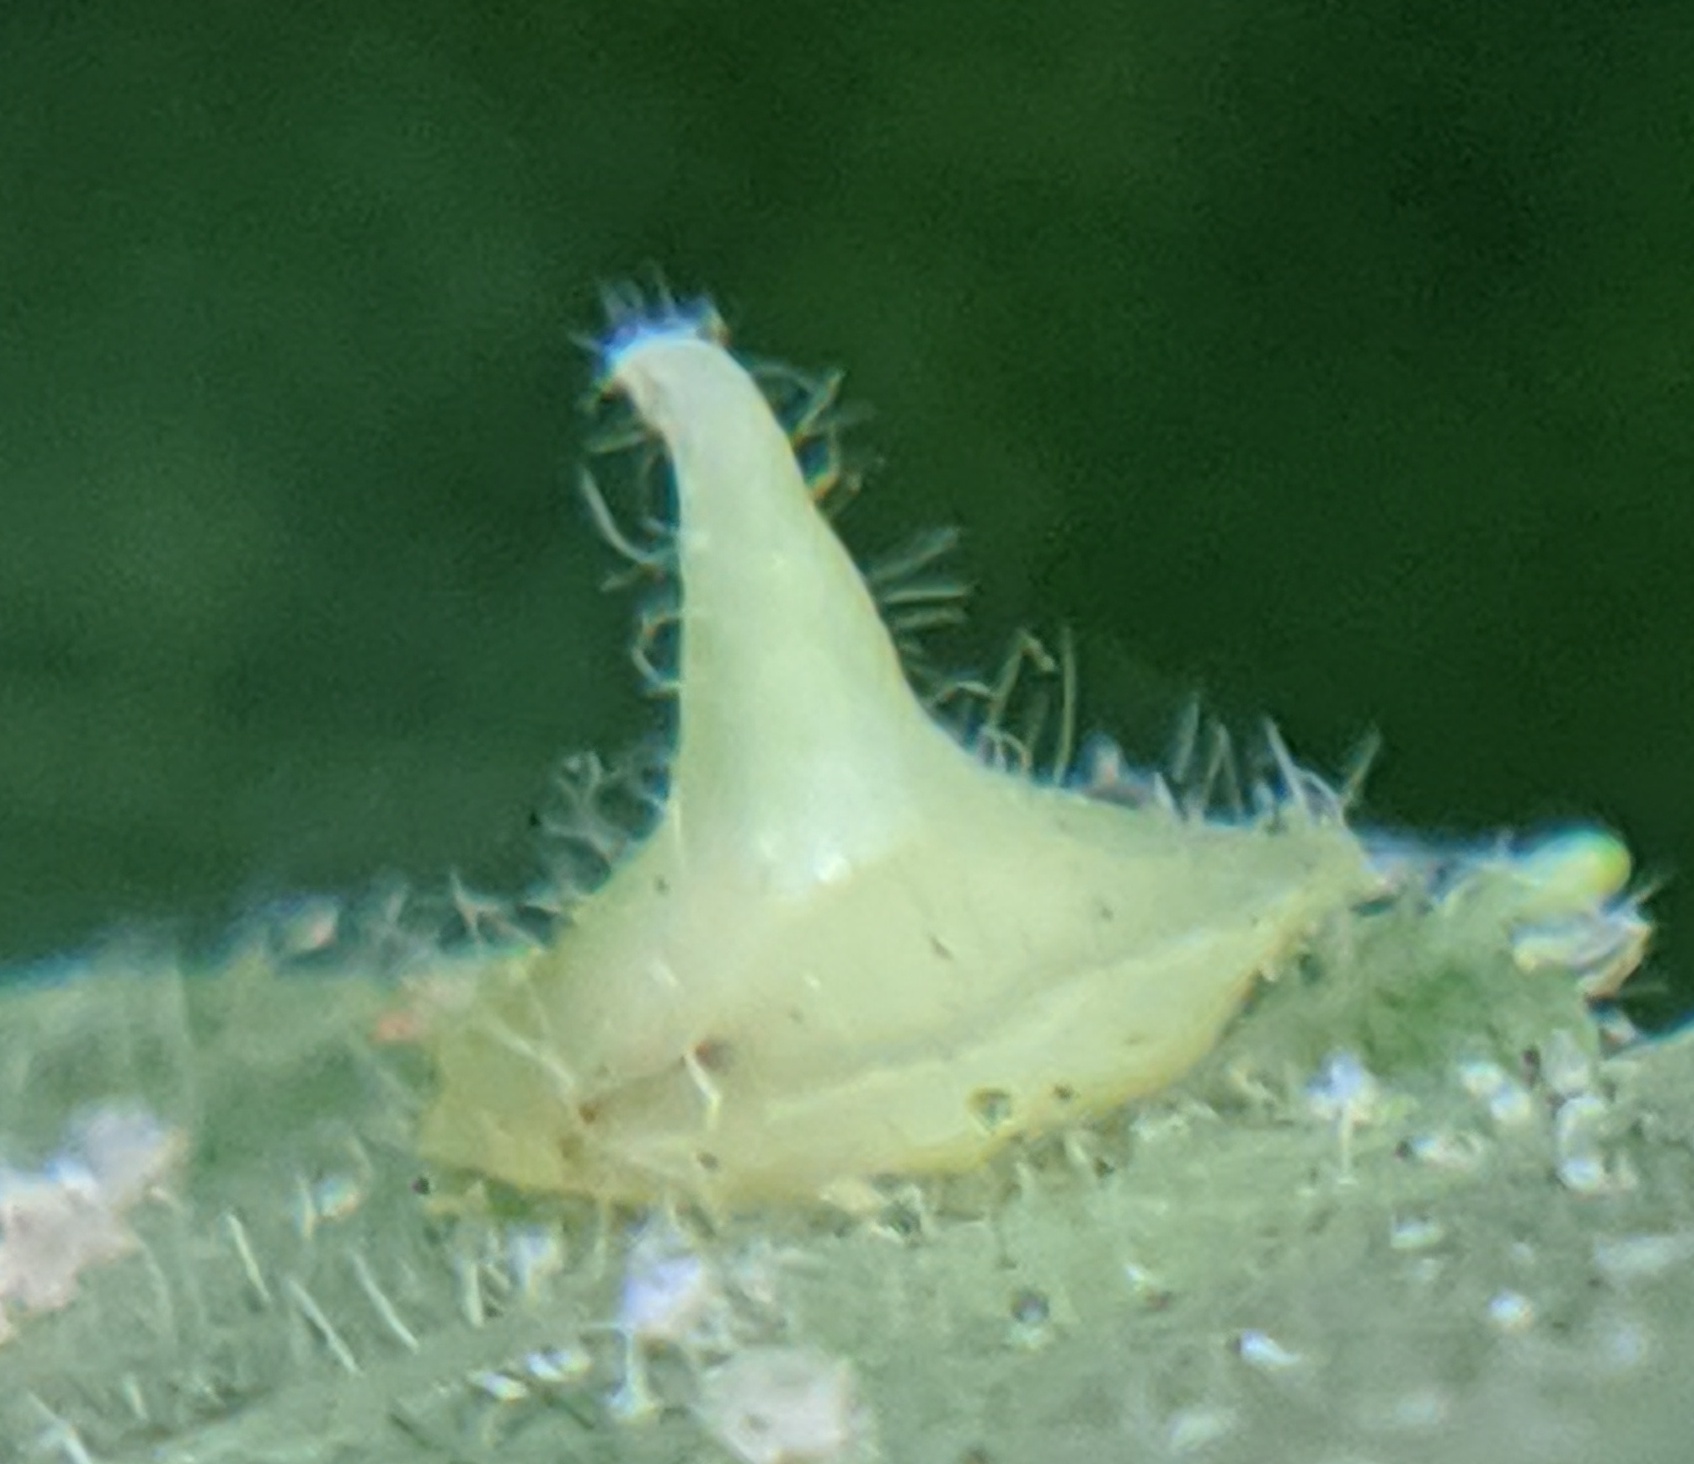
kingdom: Animalia
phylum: Arthropoda
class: Insecta
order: Diptera
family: Cecidomyiidae
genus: Caryomyia
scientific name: Caryomyia marginata
